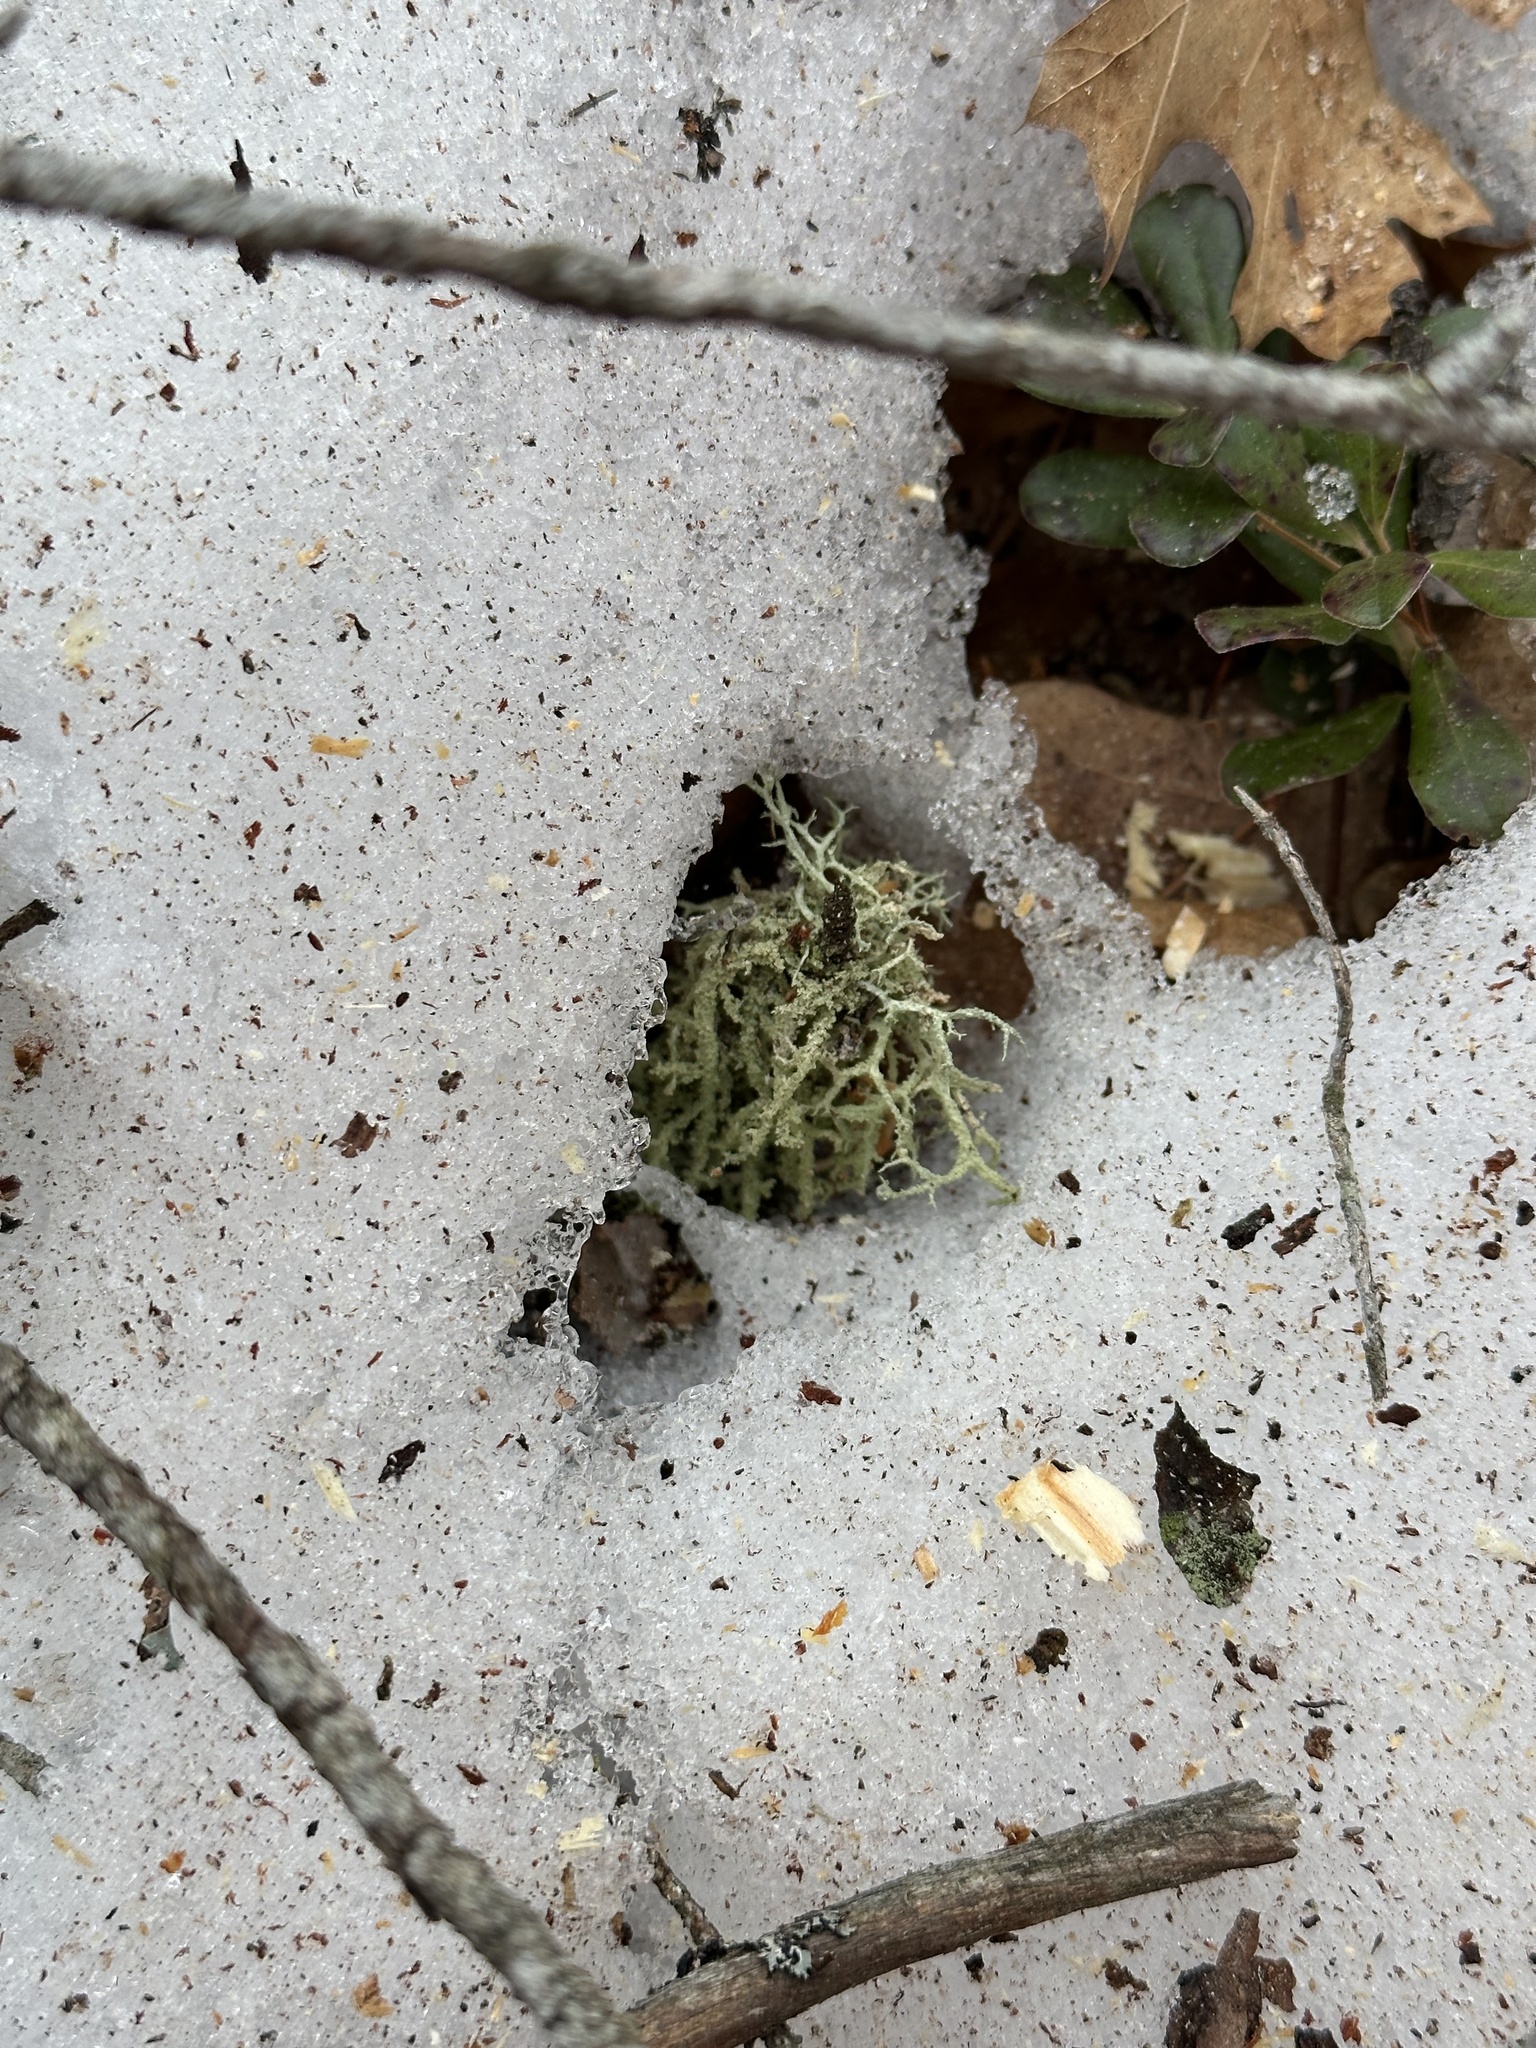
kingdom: Fungi
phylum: Ascomycota
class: Lecanoromycetes
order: Lecanorales
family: Parmeliaceae
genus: Evernia
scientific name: Evernia mesomorpha
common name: Boreal oak moss lichen
